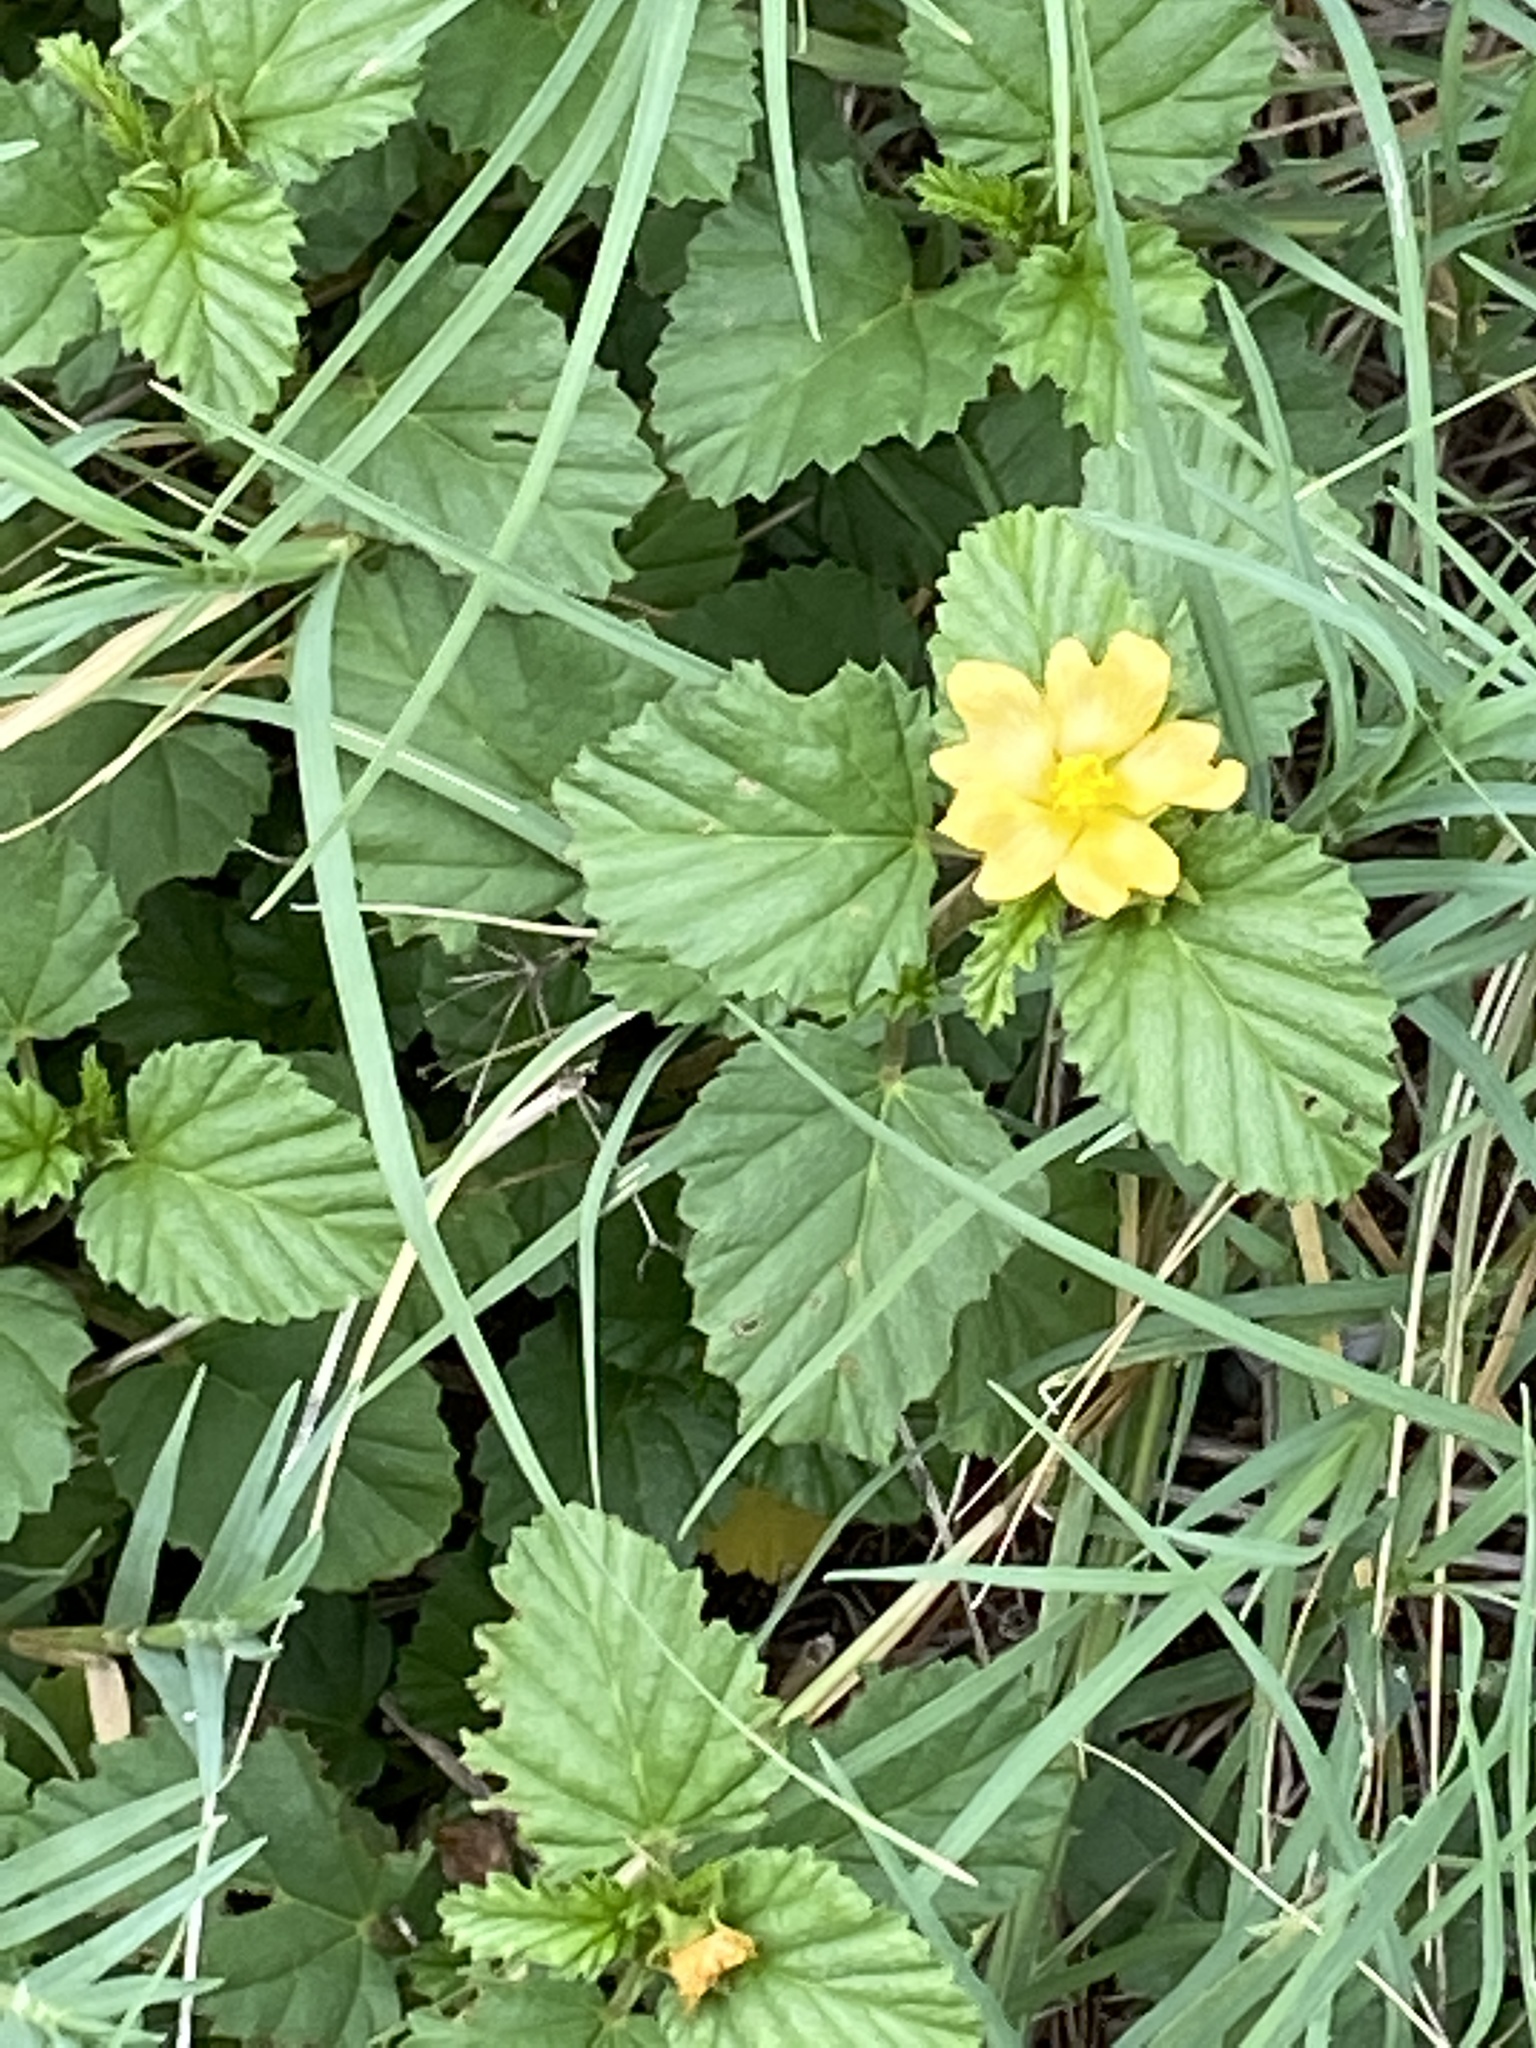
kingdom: Plantae
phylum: Tracheophyta
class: Magnoliopsida
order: Malvales
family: Malvaceae
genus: Malvastrum
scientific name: Malvastrum coromandelianum
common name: Threelobe false mallow
